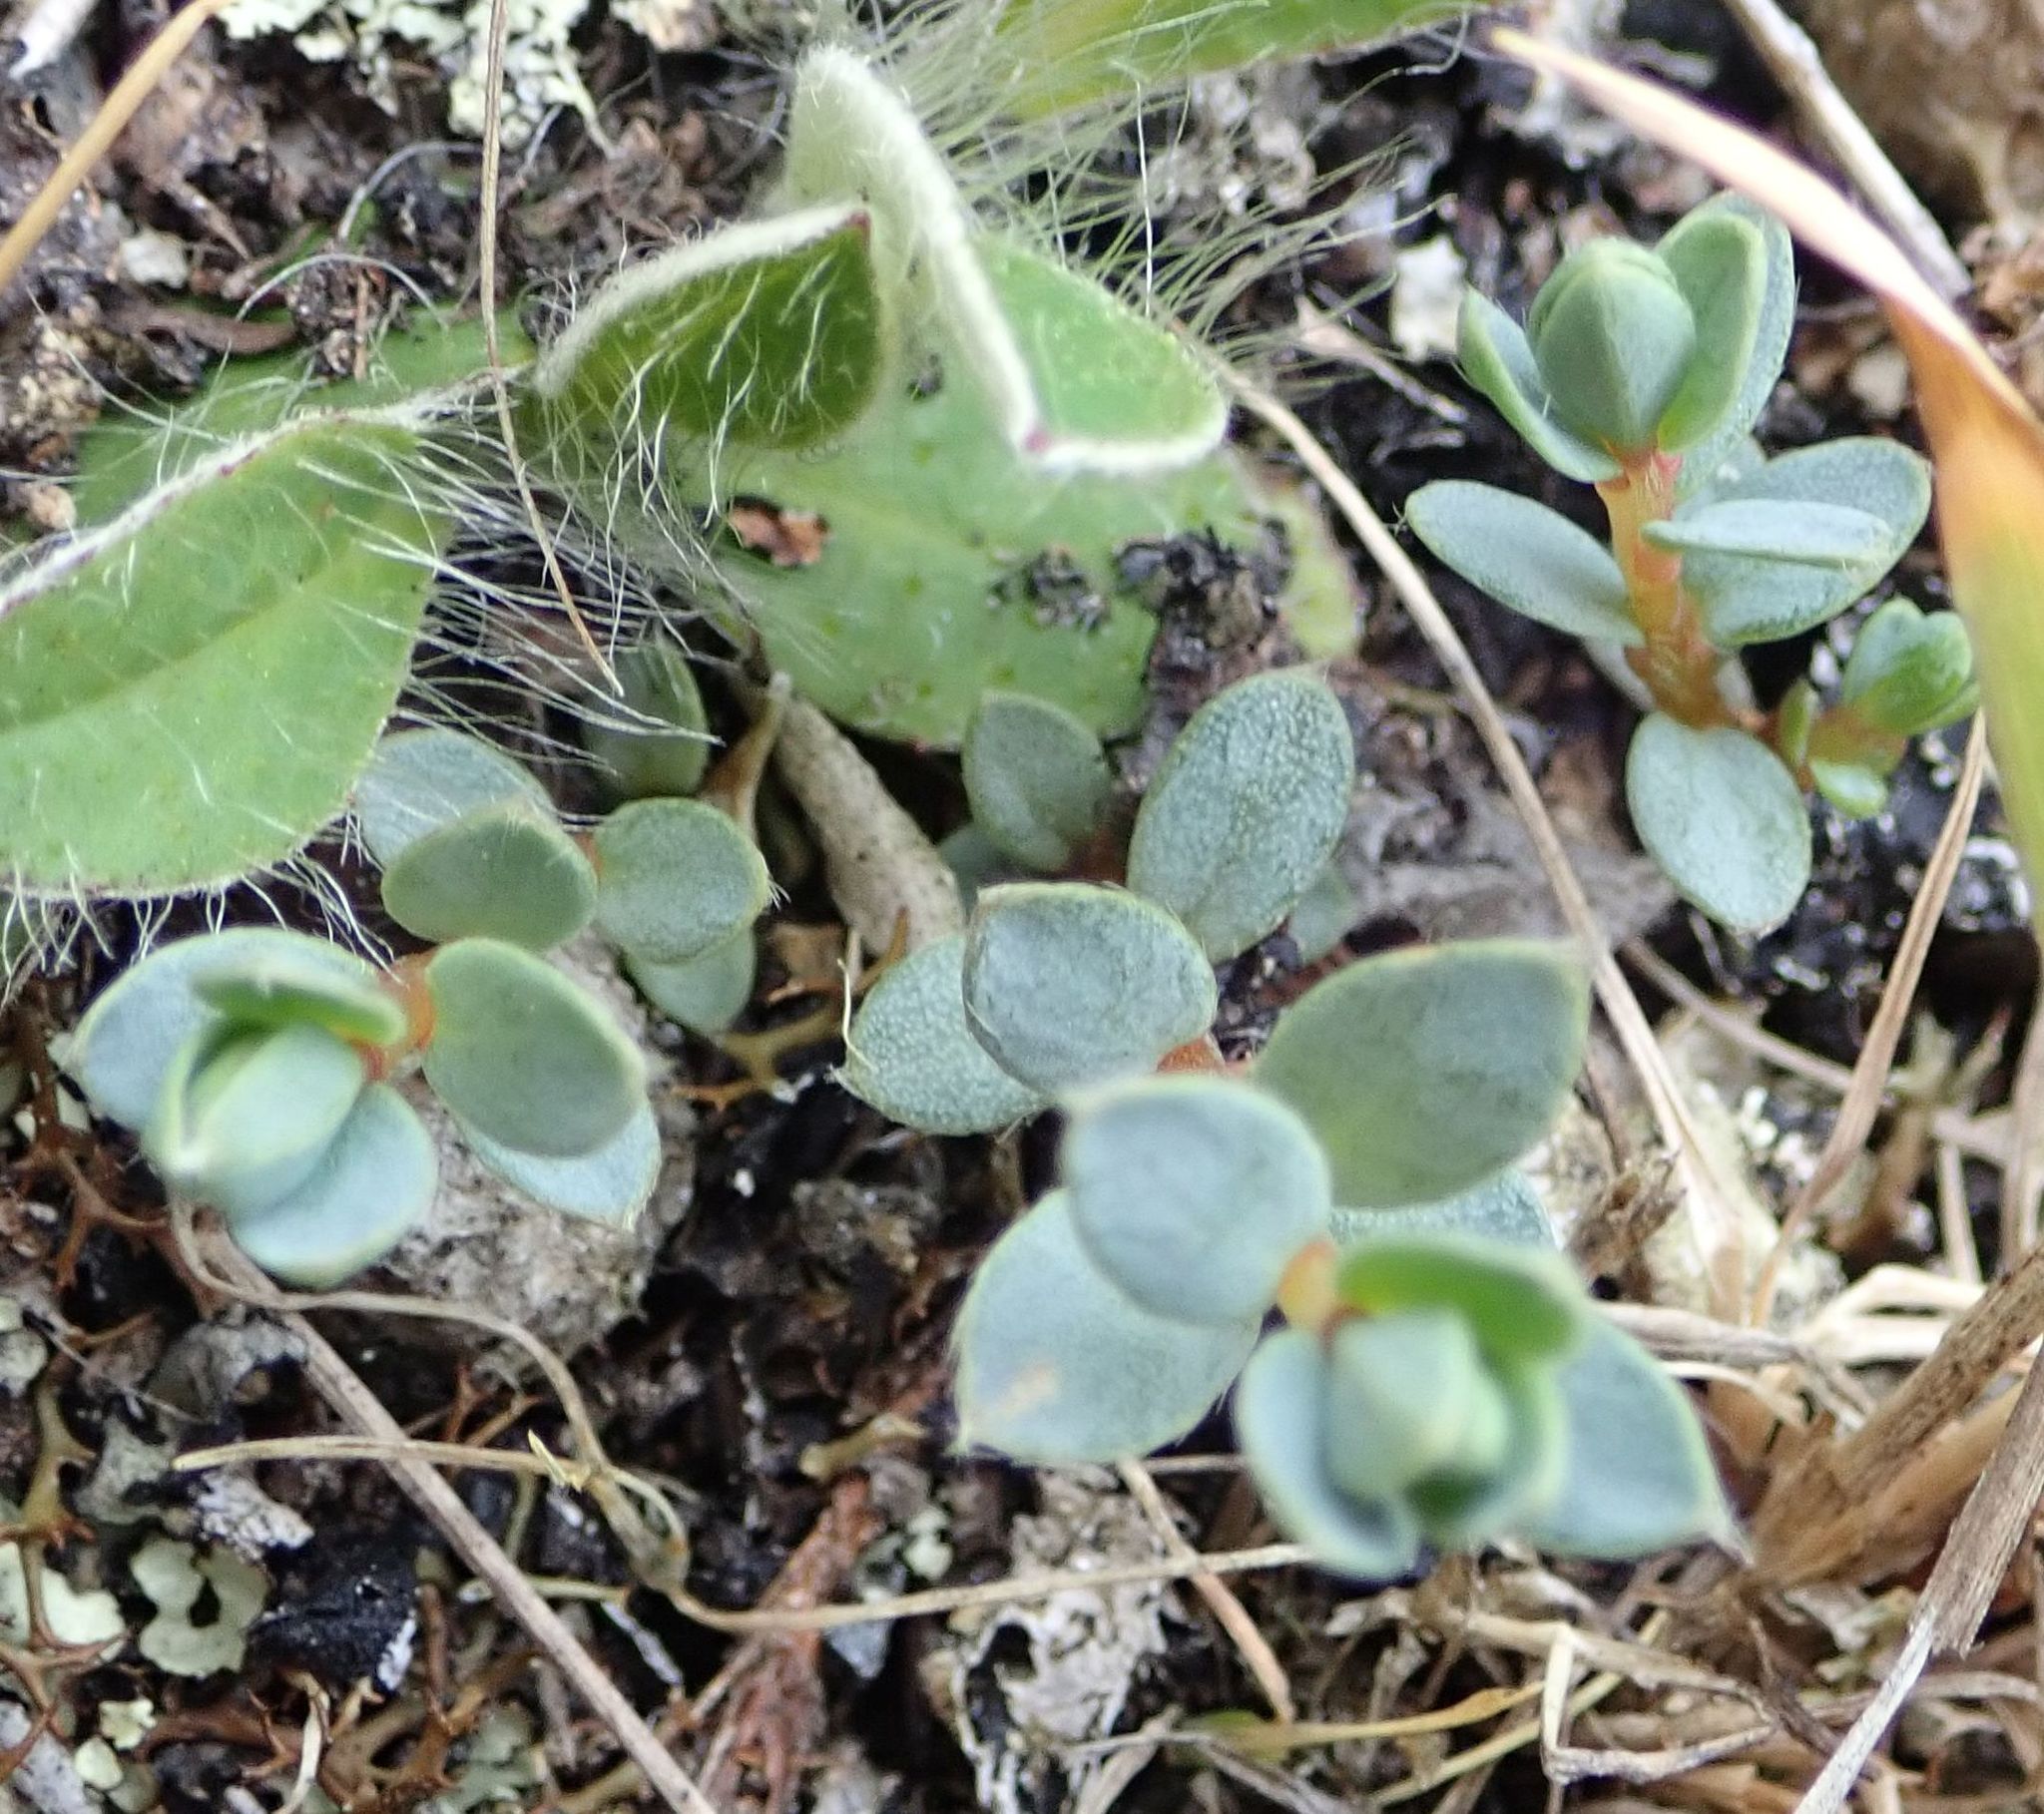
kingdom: Plantae
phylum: Tracheophyta
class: Magnoliopsida
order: Malvales
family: Thymelaeaceae
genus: Pimelea
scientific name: Pimelea prostrata
